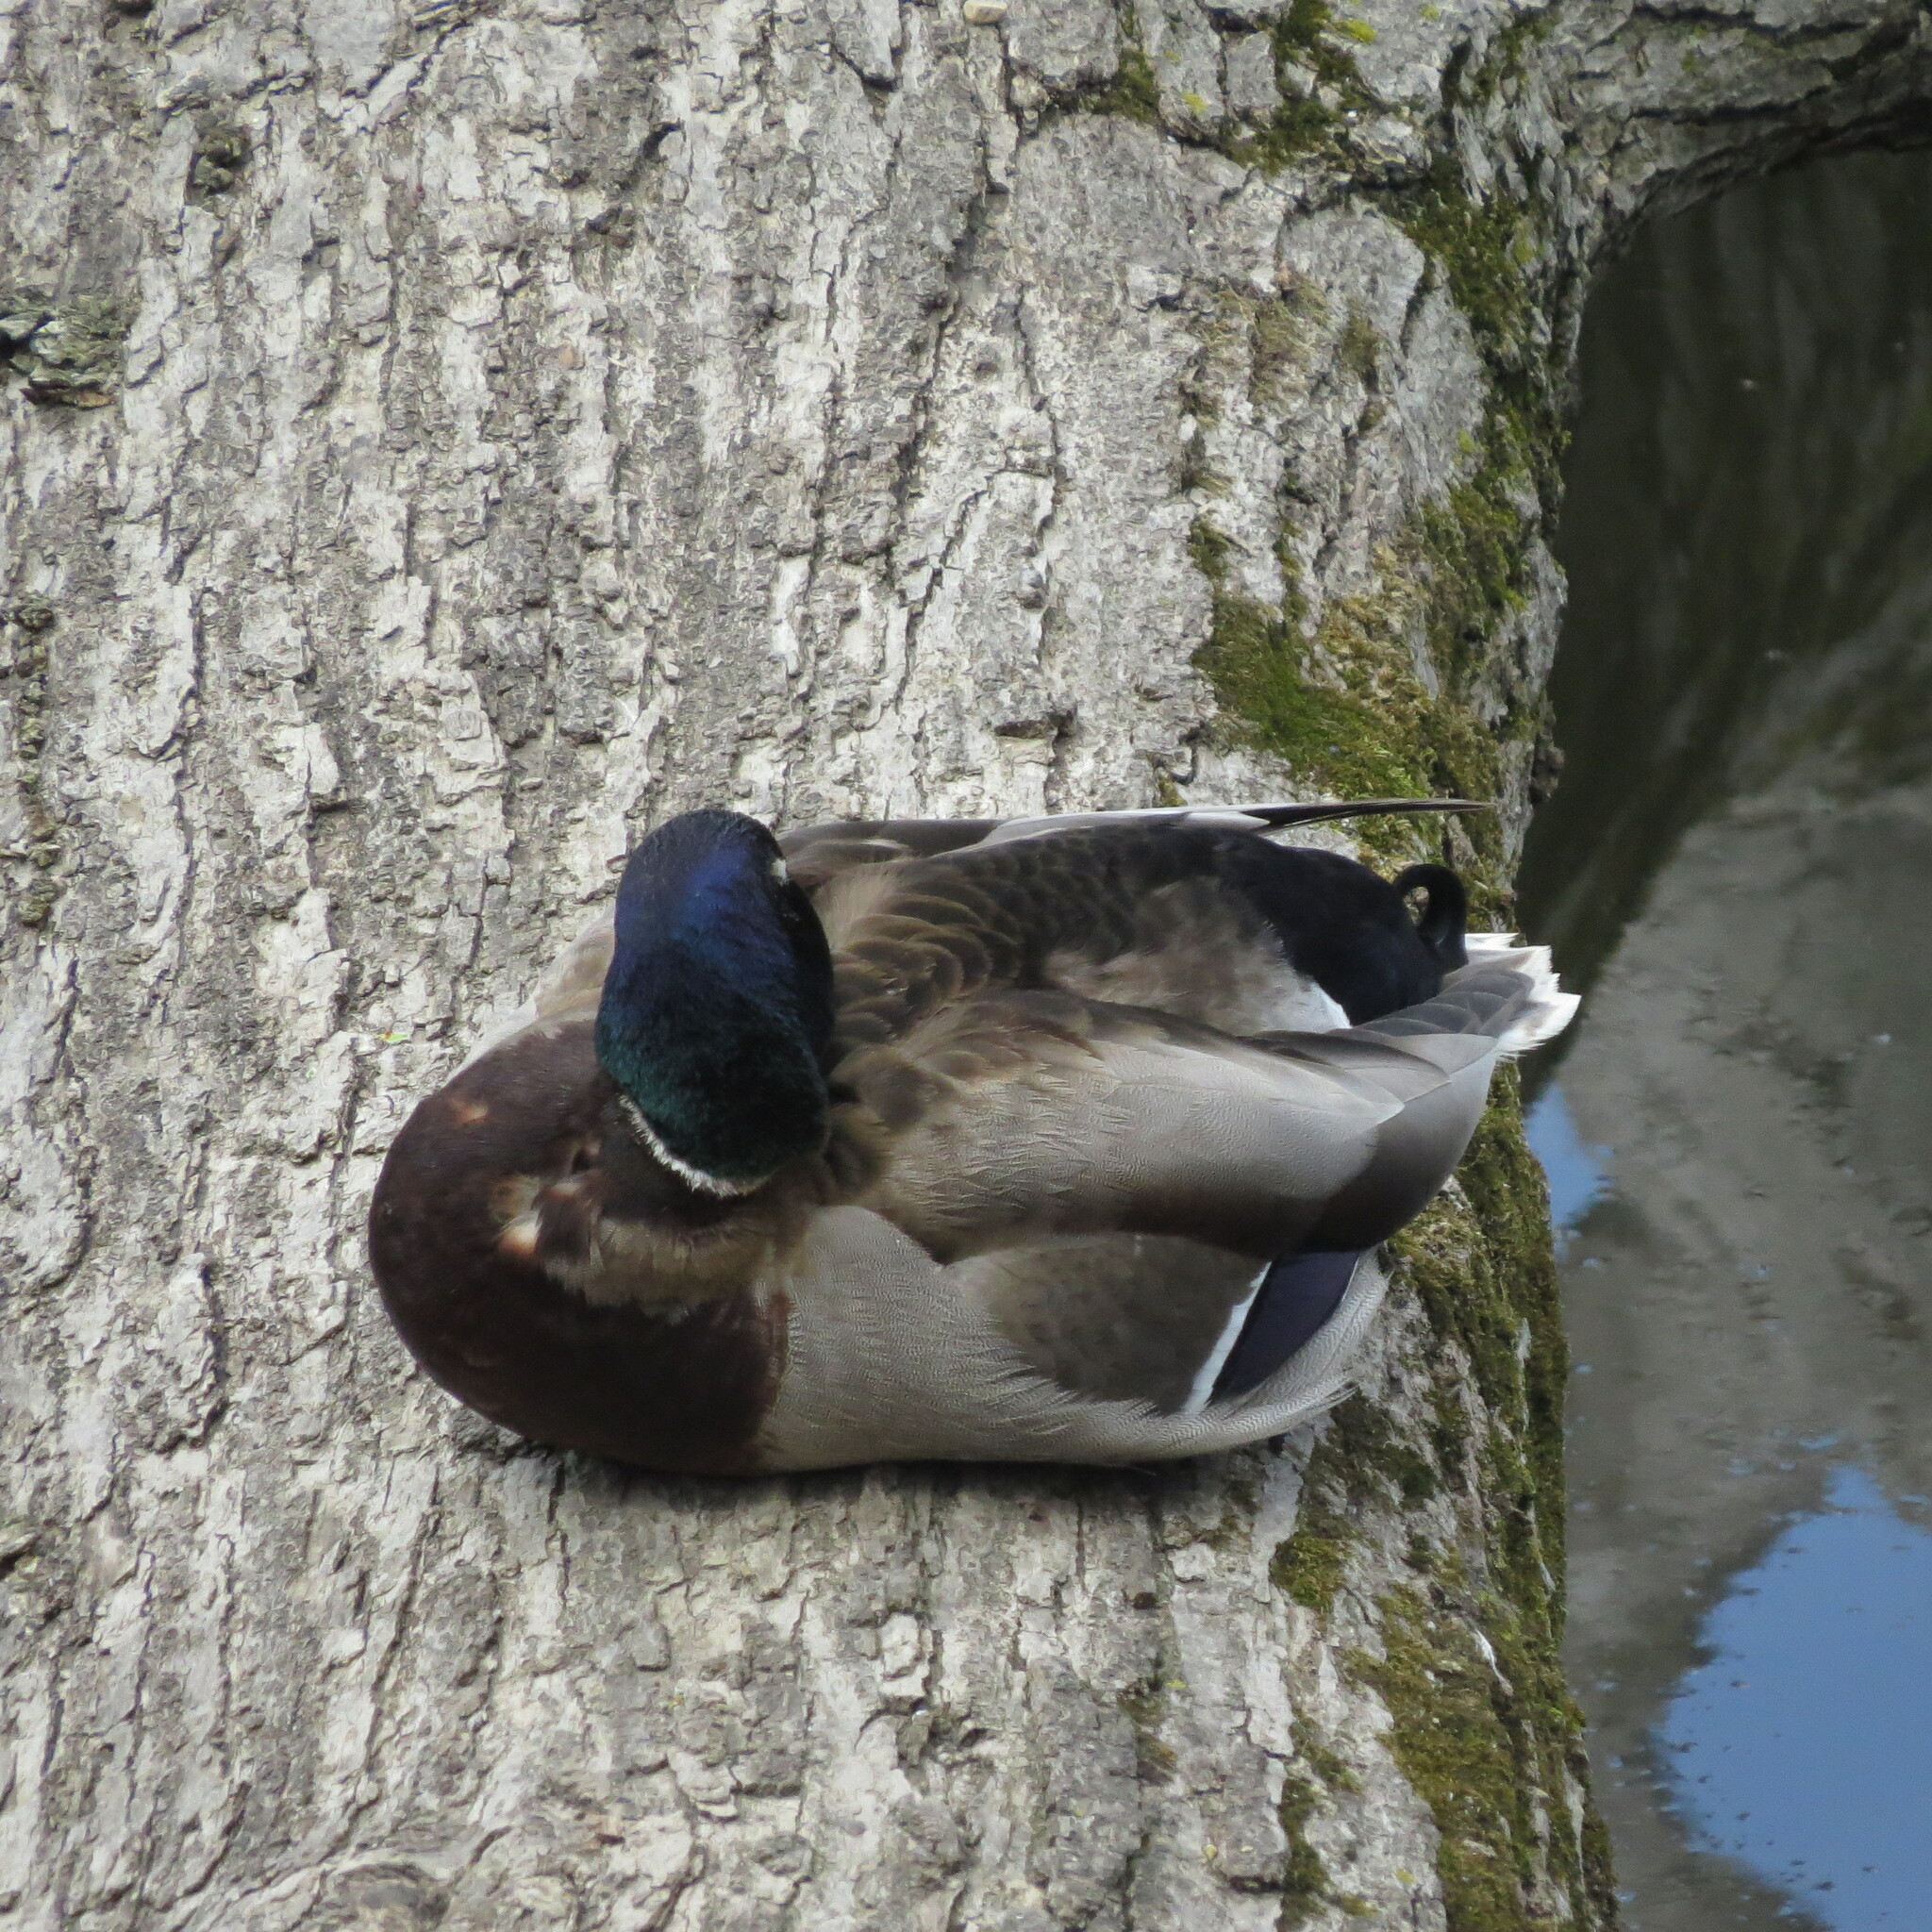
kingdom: Animalia
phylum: Chordata
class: Aves
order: Anseriformes
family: Anatidae
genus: Anas
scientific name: Anas platyrhynchos
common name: Mallard
